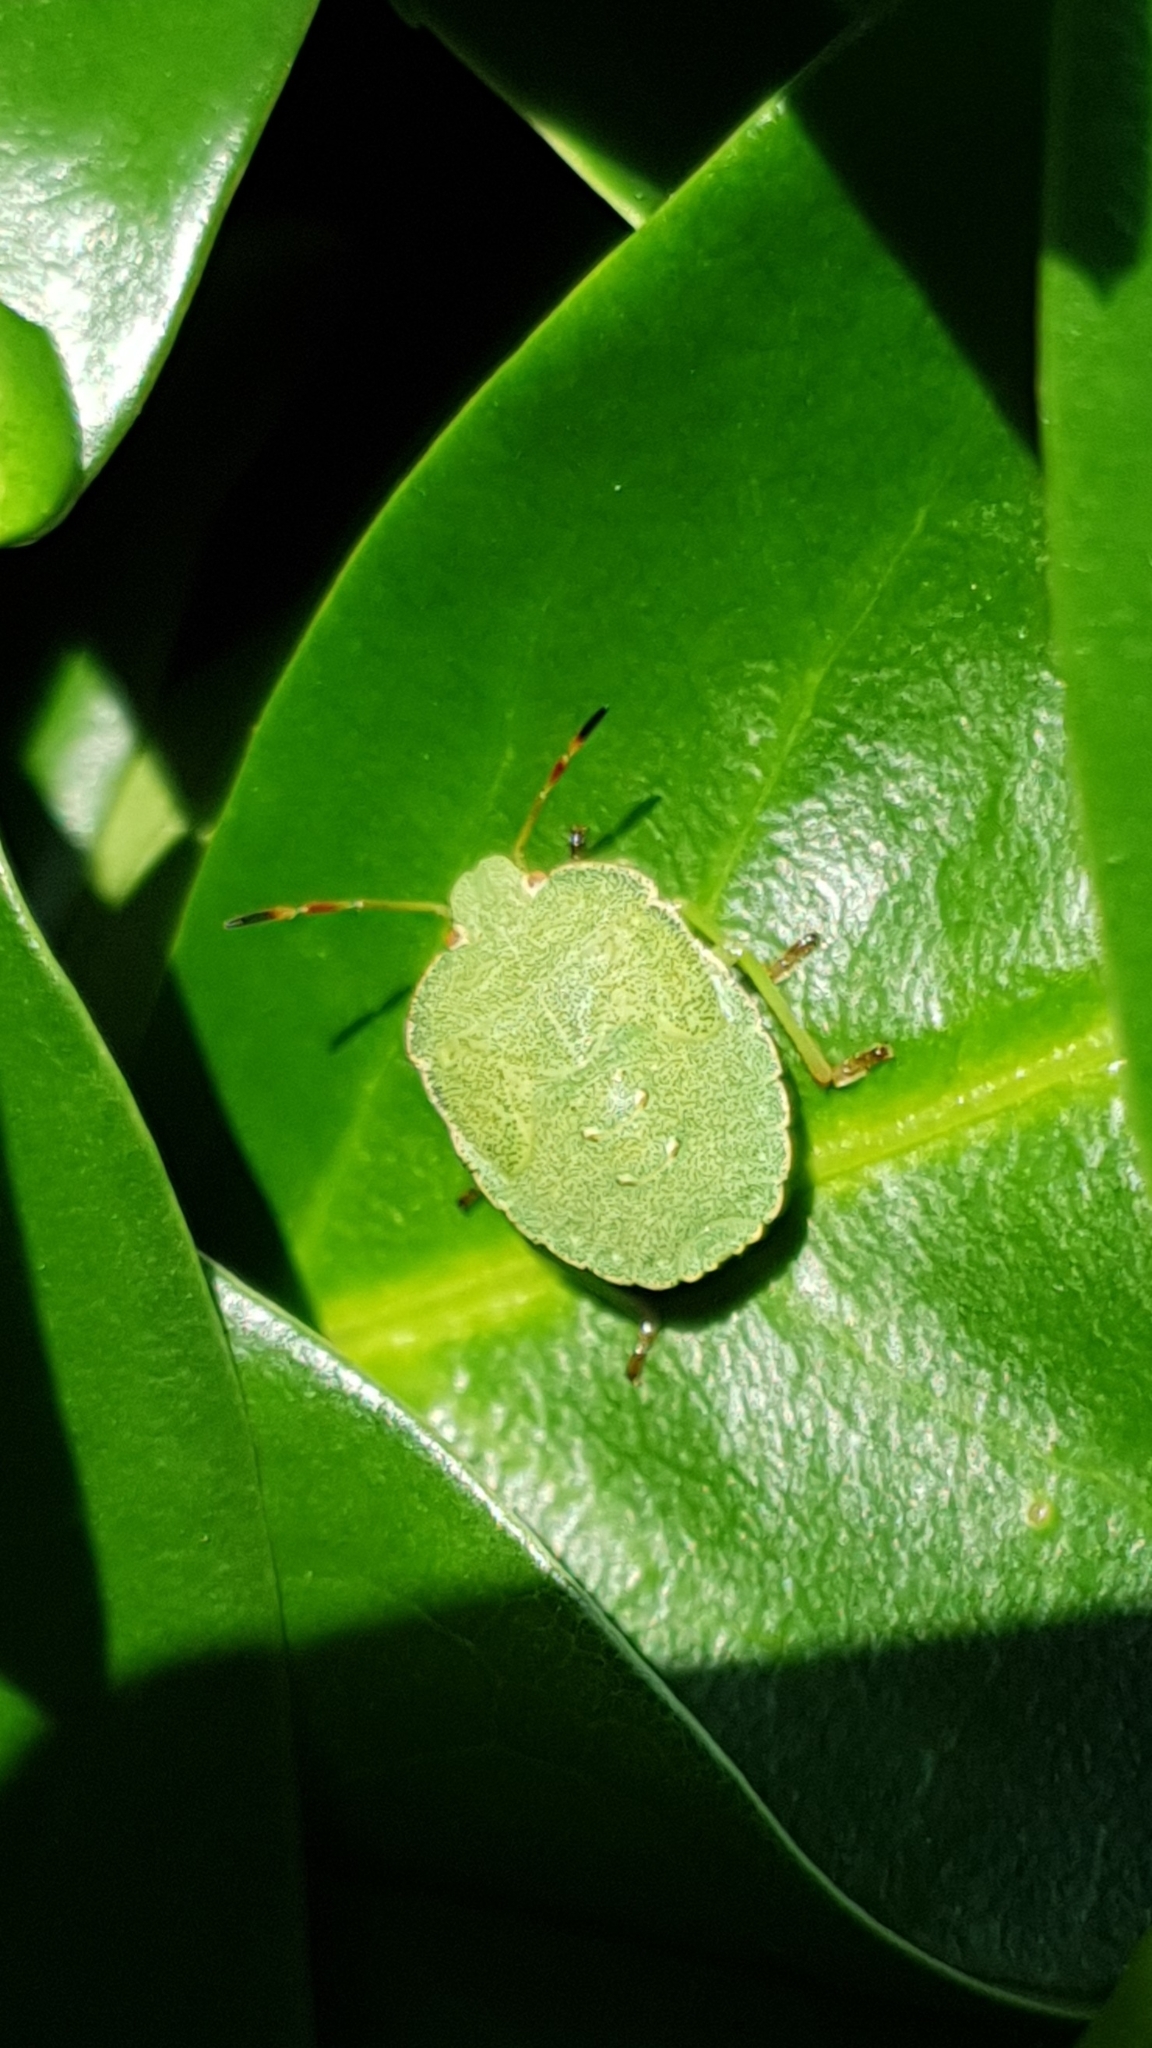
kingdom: Animalia
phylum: Arthropoda
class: Insecta
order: Hemiptera
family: Pentatomidae
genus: Palomena
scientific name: Palomena prasina
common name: Green shieldbug
